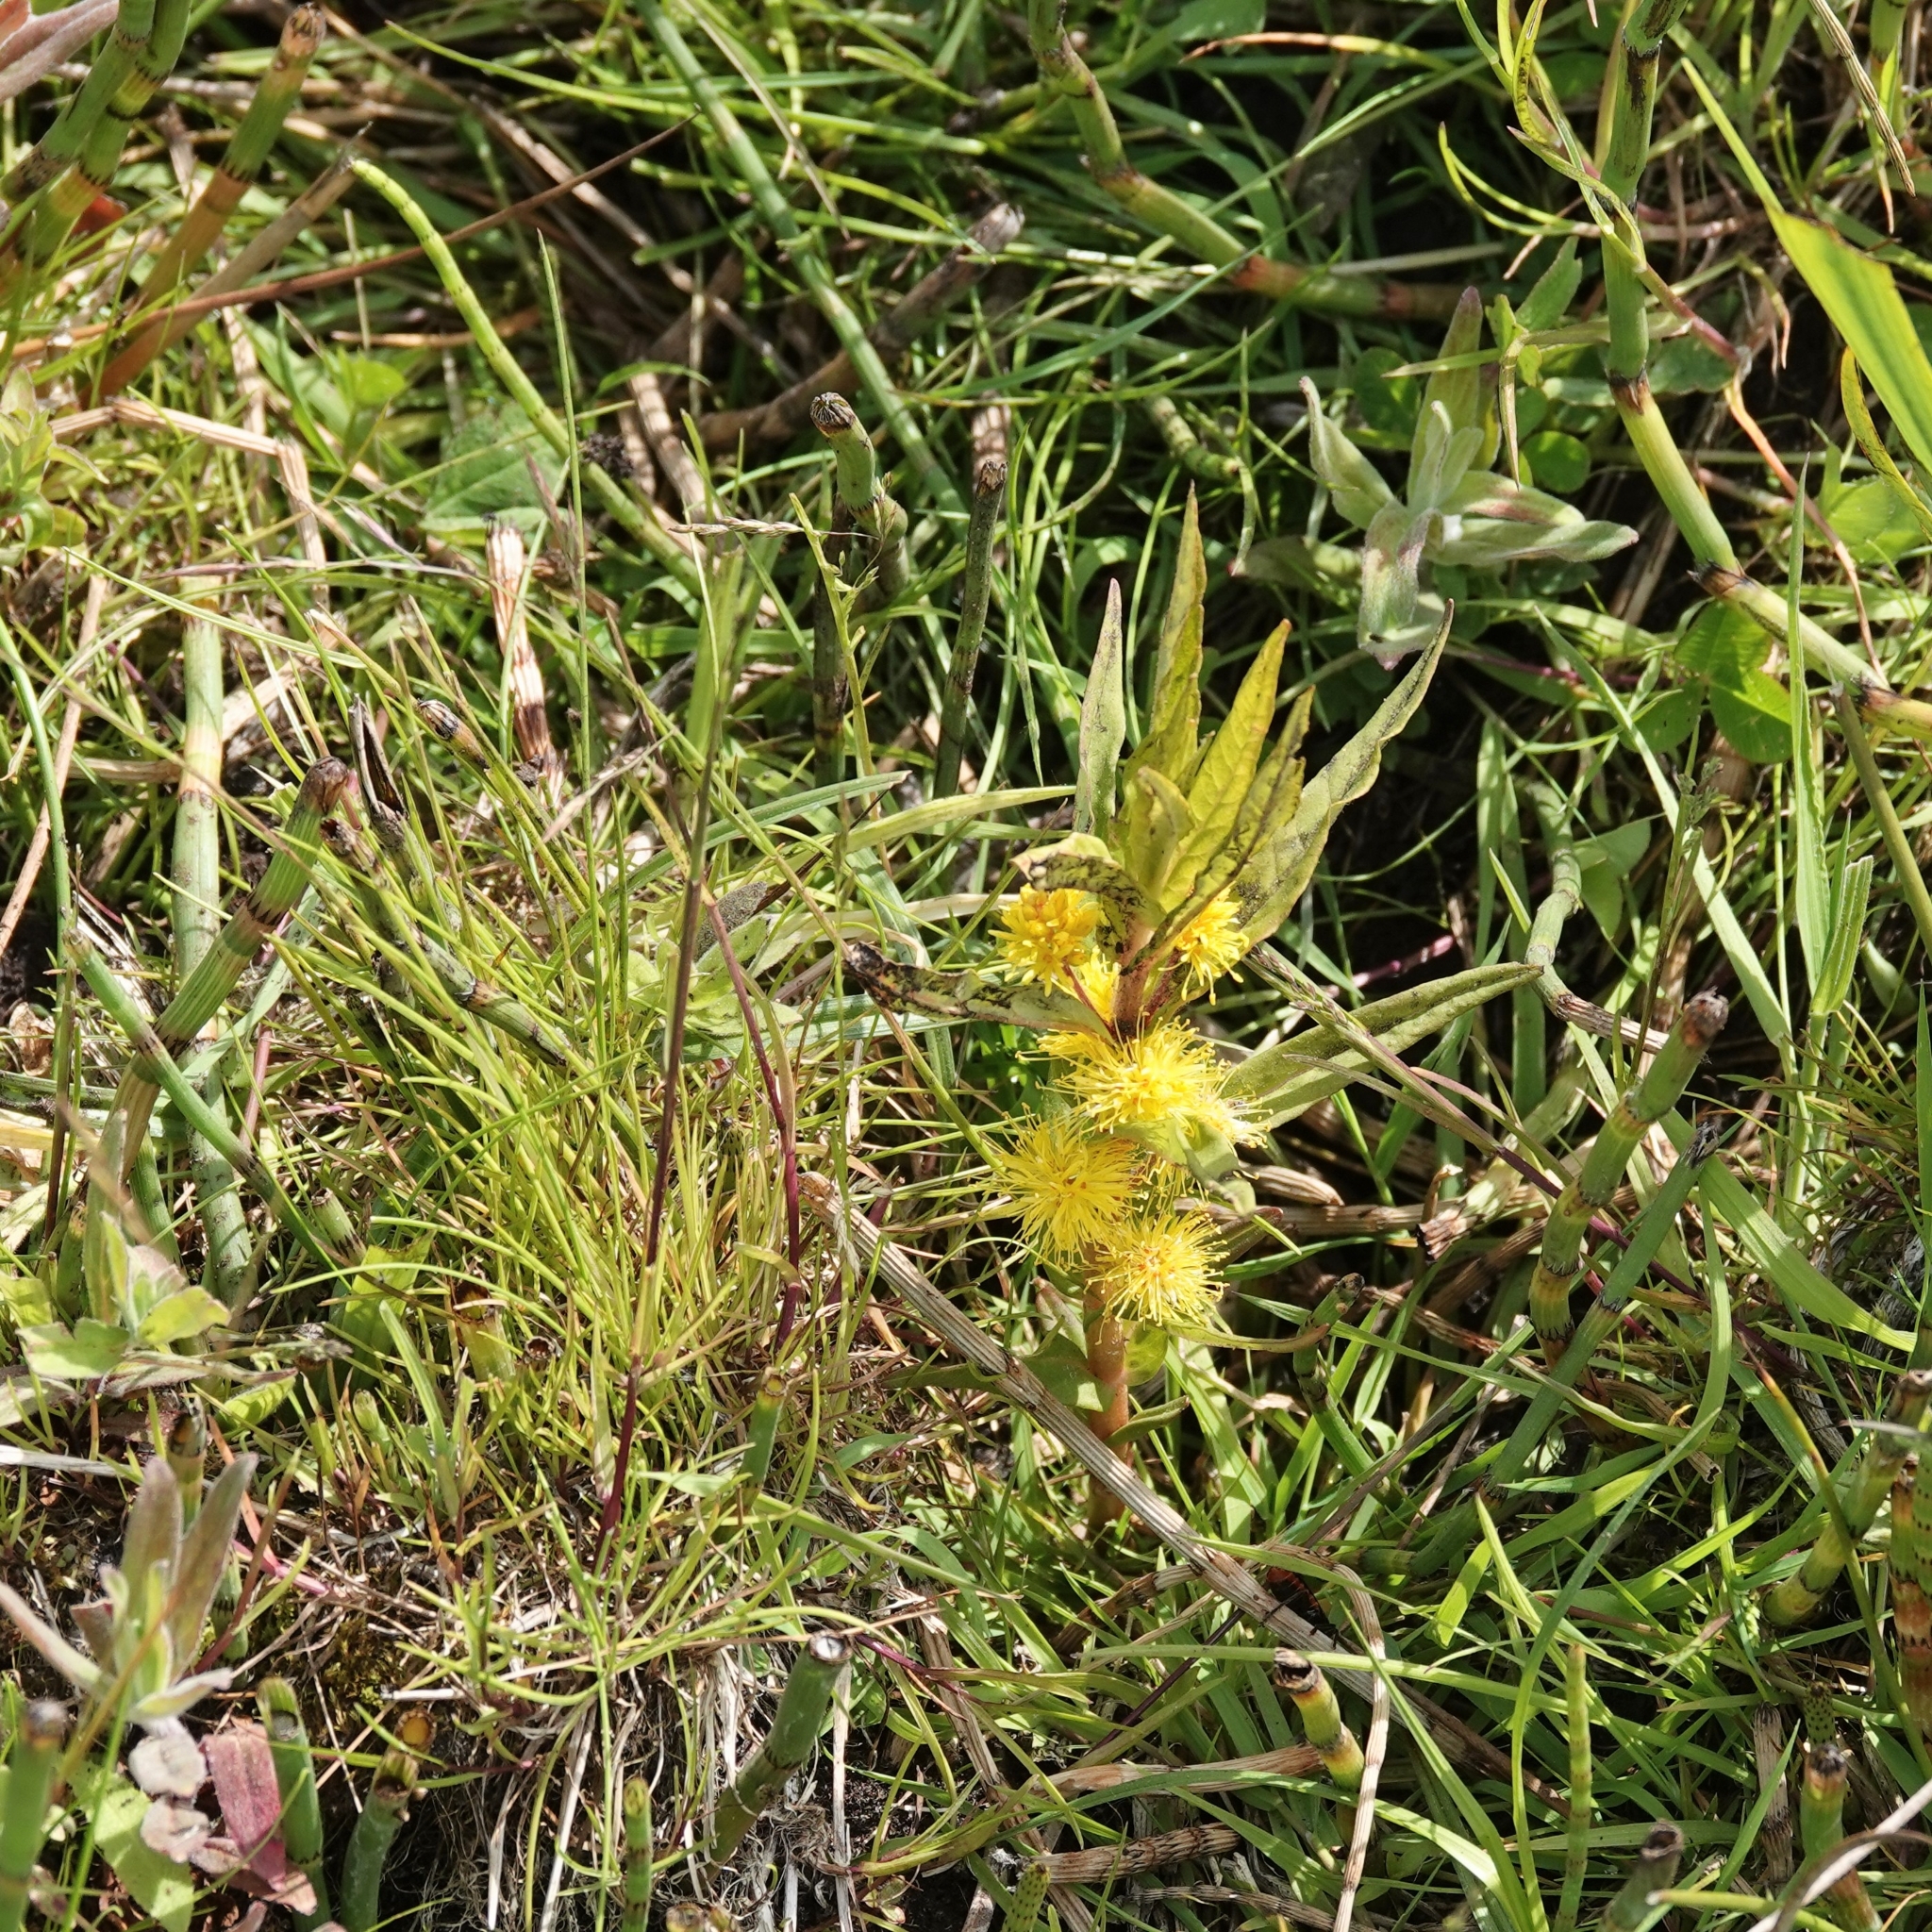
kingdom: Plantae
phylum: Tracheophyta
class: Magnoliopsida
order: Ericales
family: Primulaceae
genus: Lysimachia
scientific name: Lysimachia thyrsiflora
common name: Tufted loosestrife
